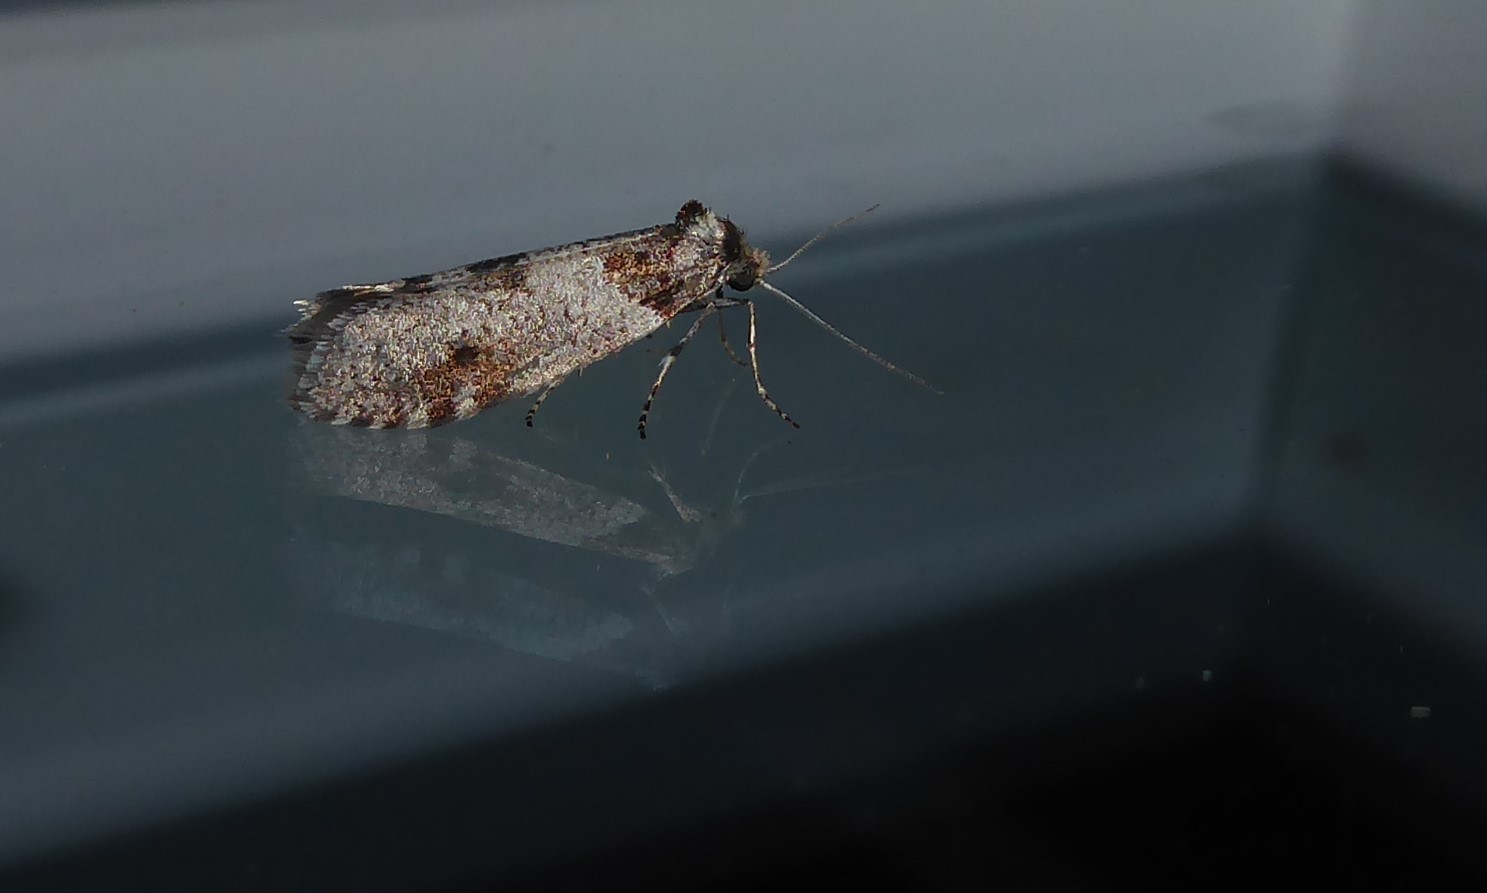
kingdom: Animalia
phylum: Arthropoda
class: Insecta
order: Lepidoptera
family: Psychidae
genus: Lepidoscia
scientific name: Lepidoscia heliochares
